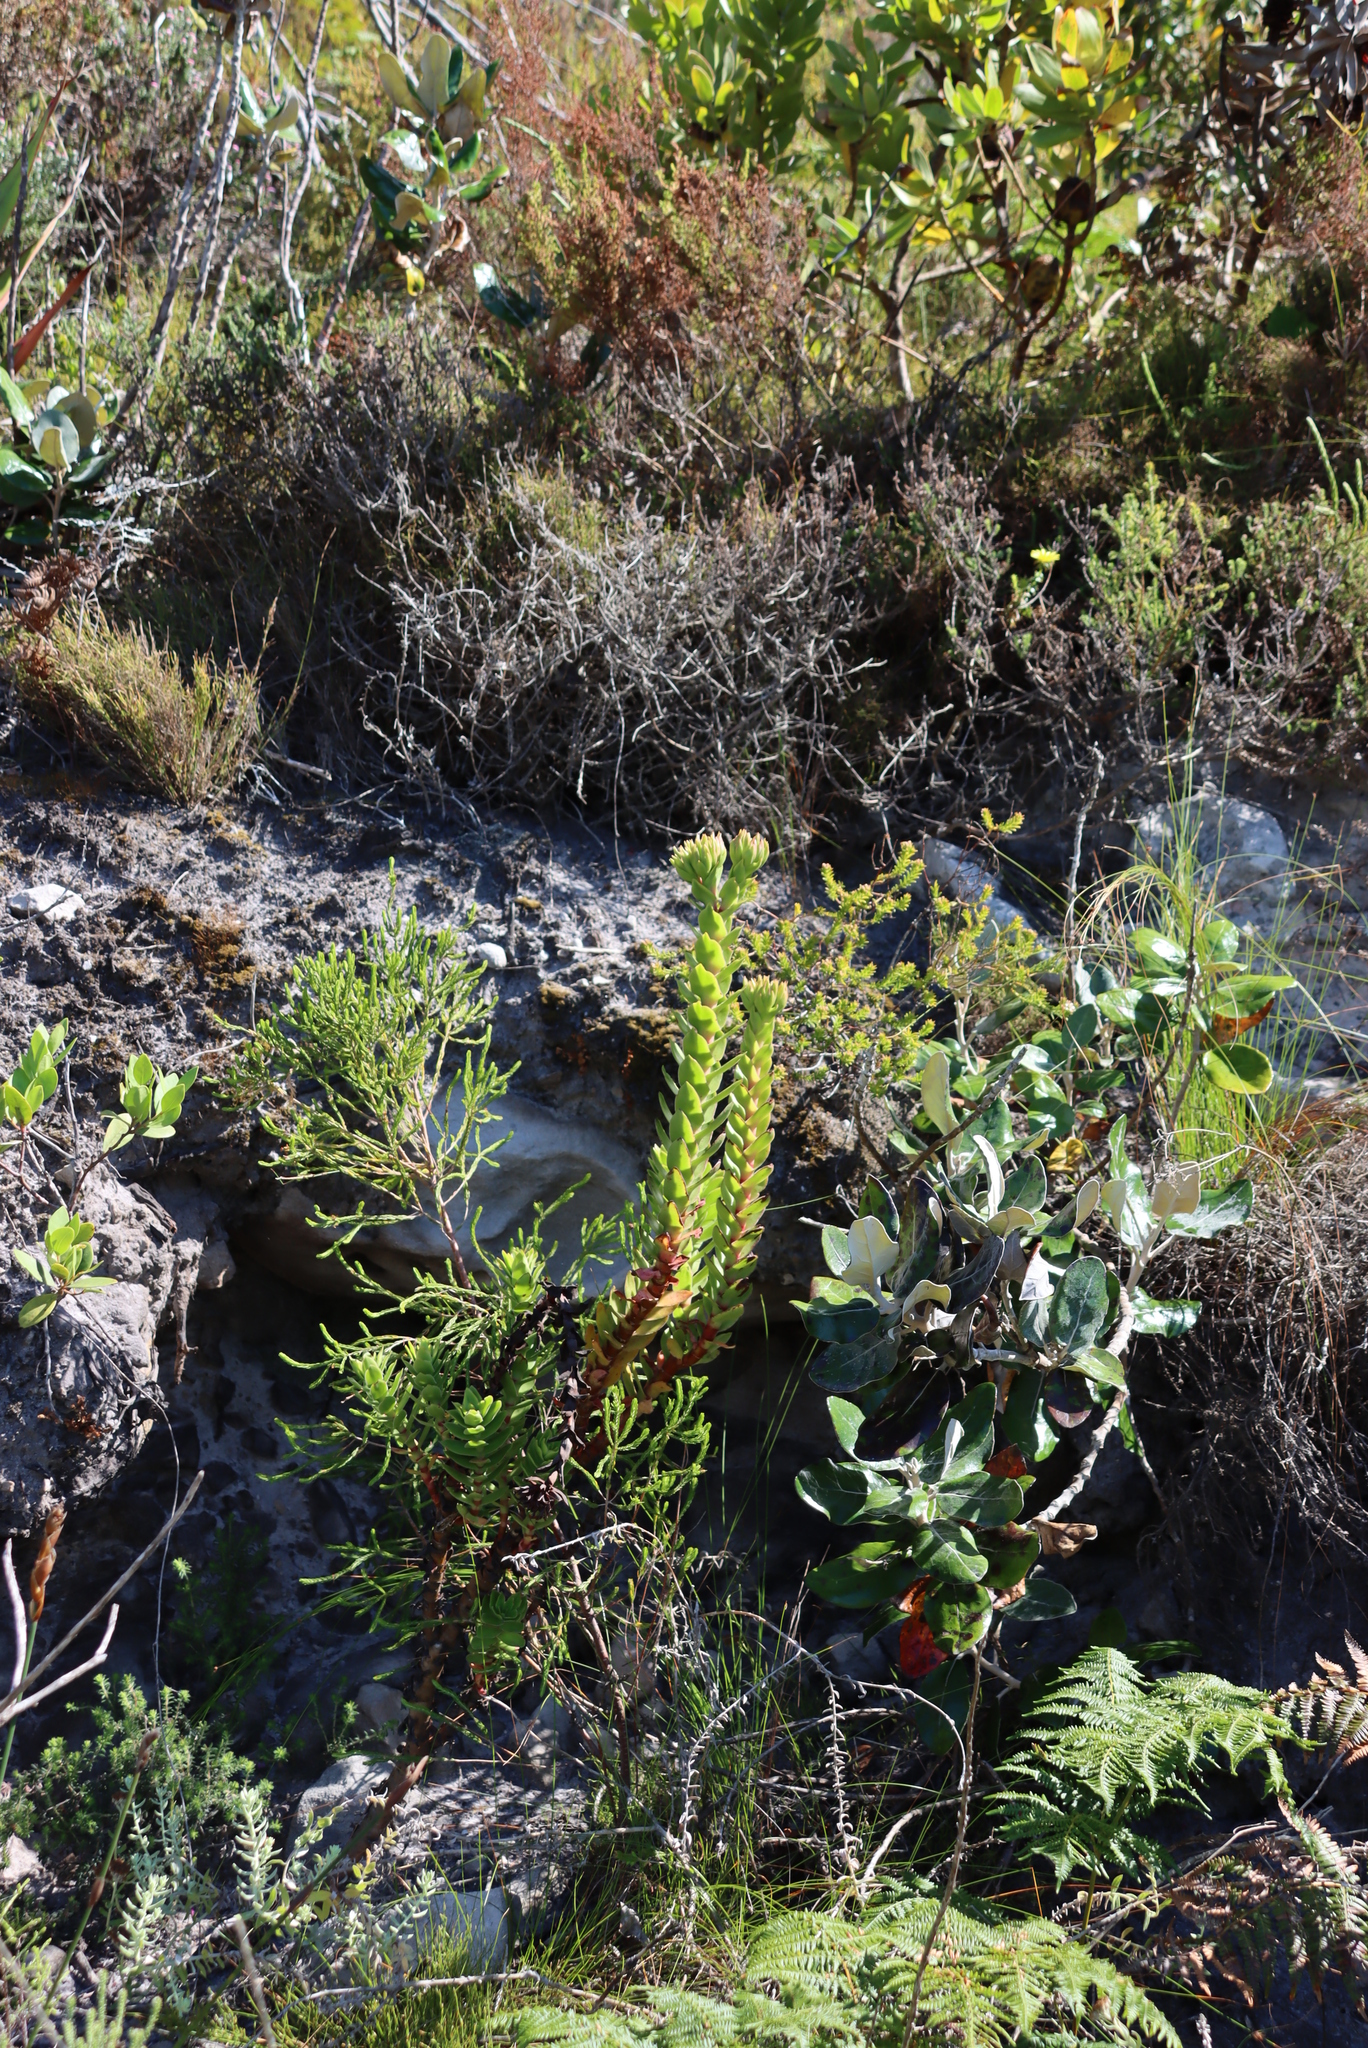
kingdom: Plantae
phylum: Tracheophyta
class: Magnoliopsida
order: Saxifragales
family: Crassulaceae
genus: Crassula
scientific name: Crassula coccinea
